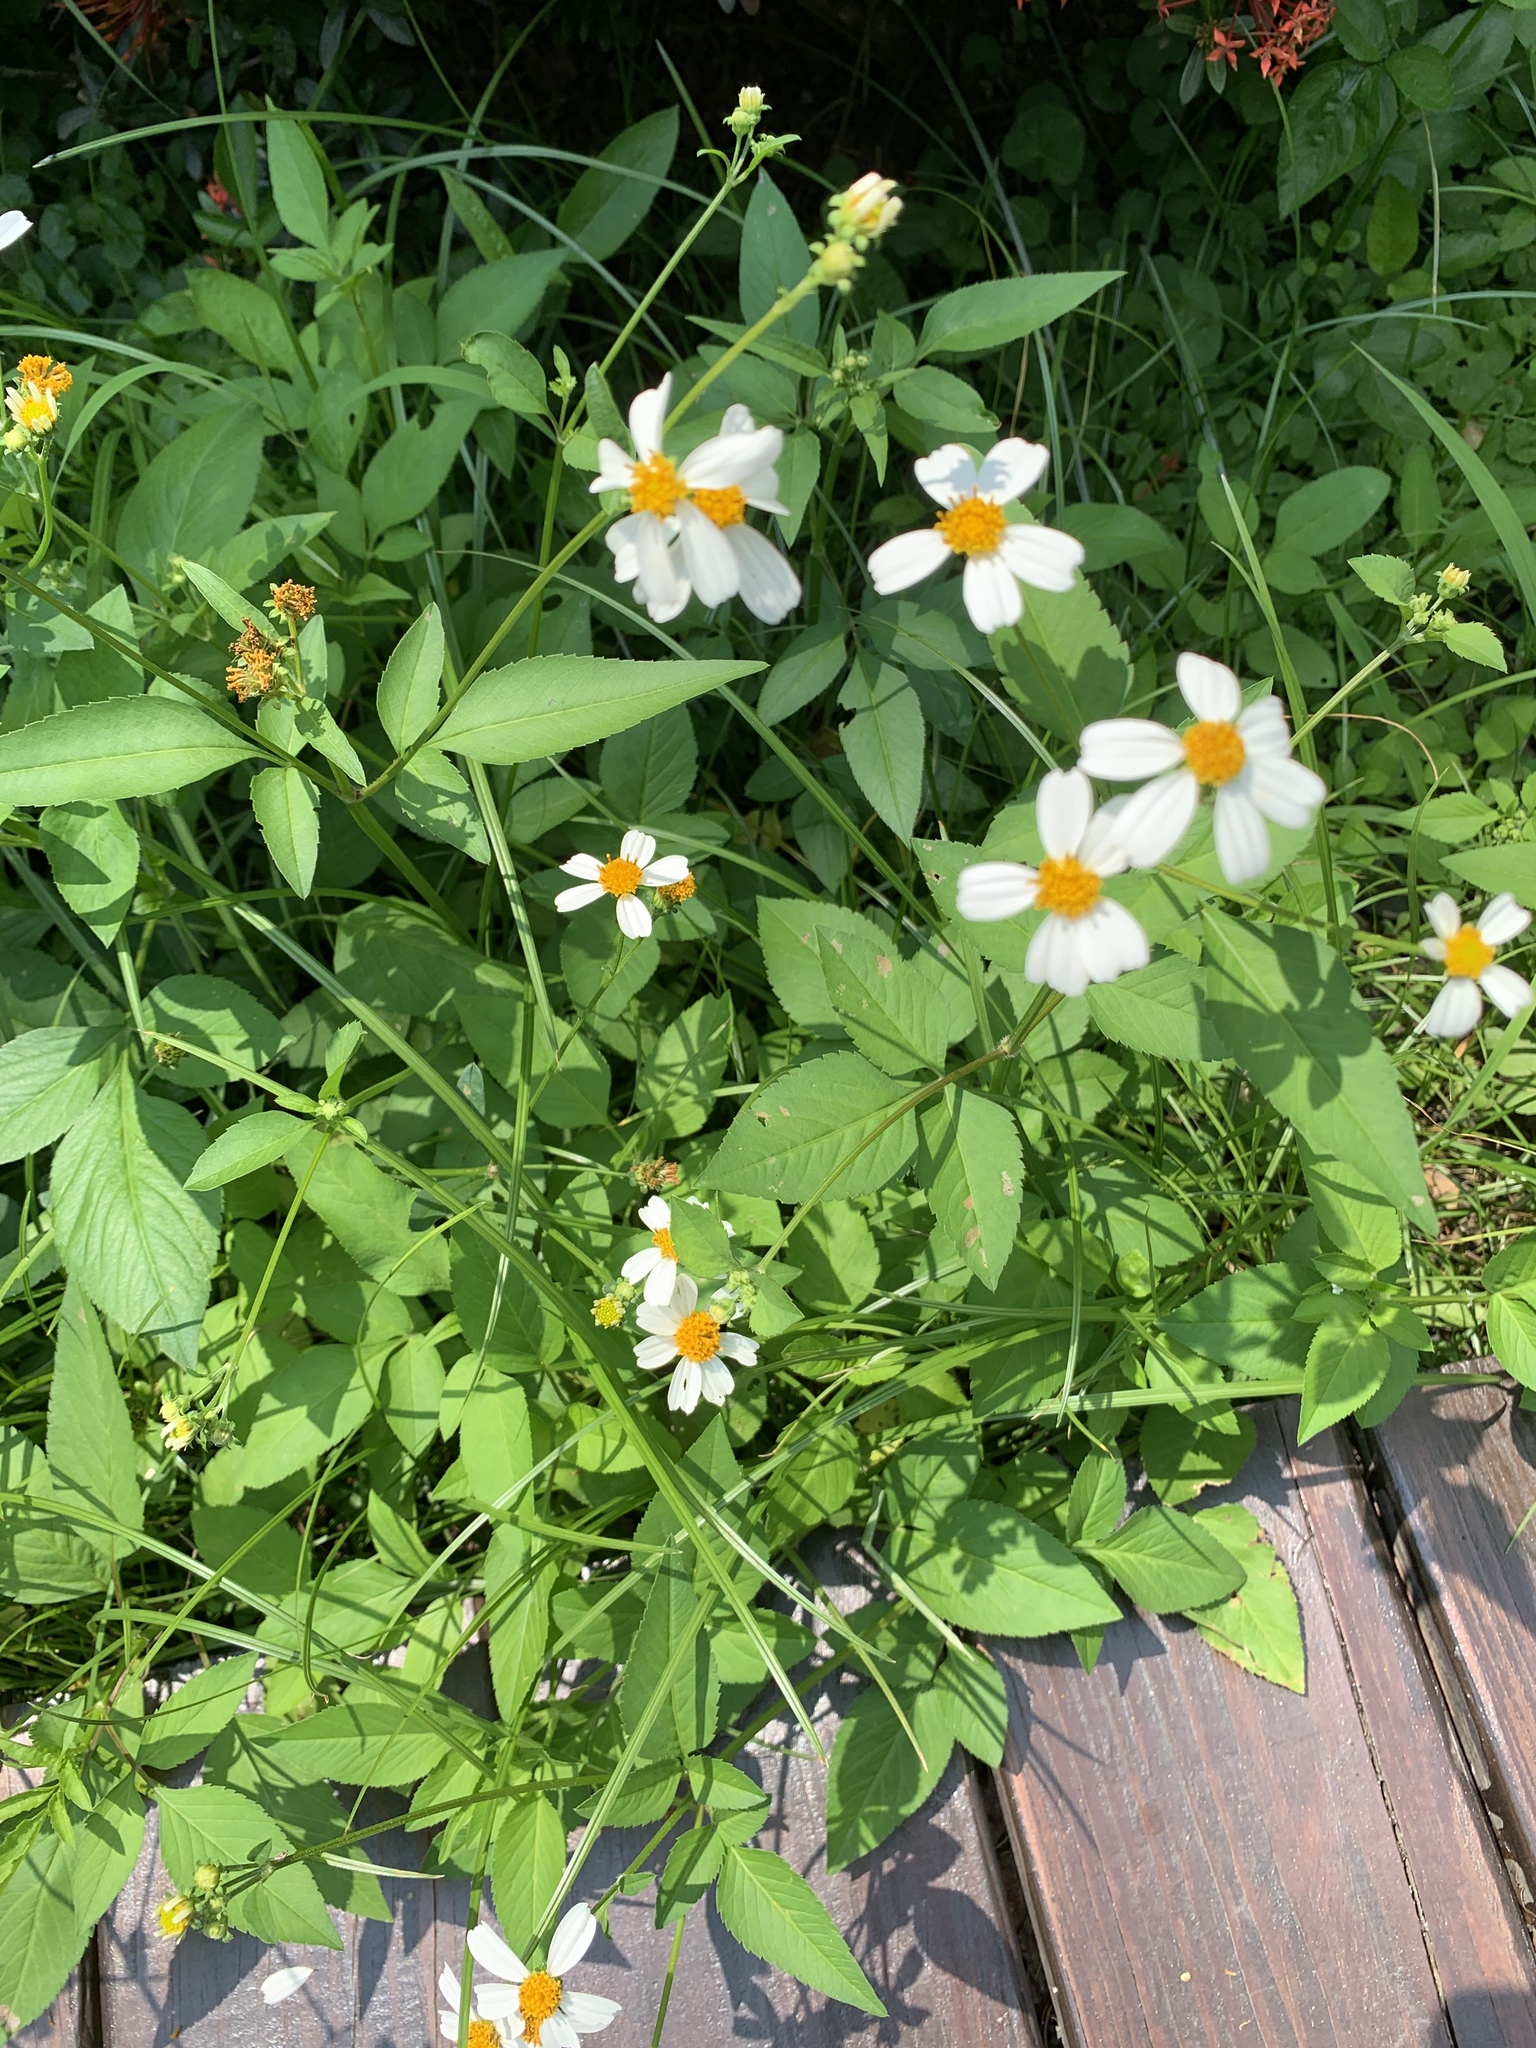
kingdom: Plantae
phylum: Tracheophyta
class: Magnoliopsida
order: Asterales
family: Asteraceae
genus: Bidens
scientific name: Bidens alba
